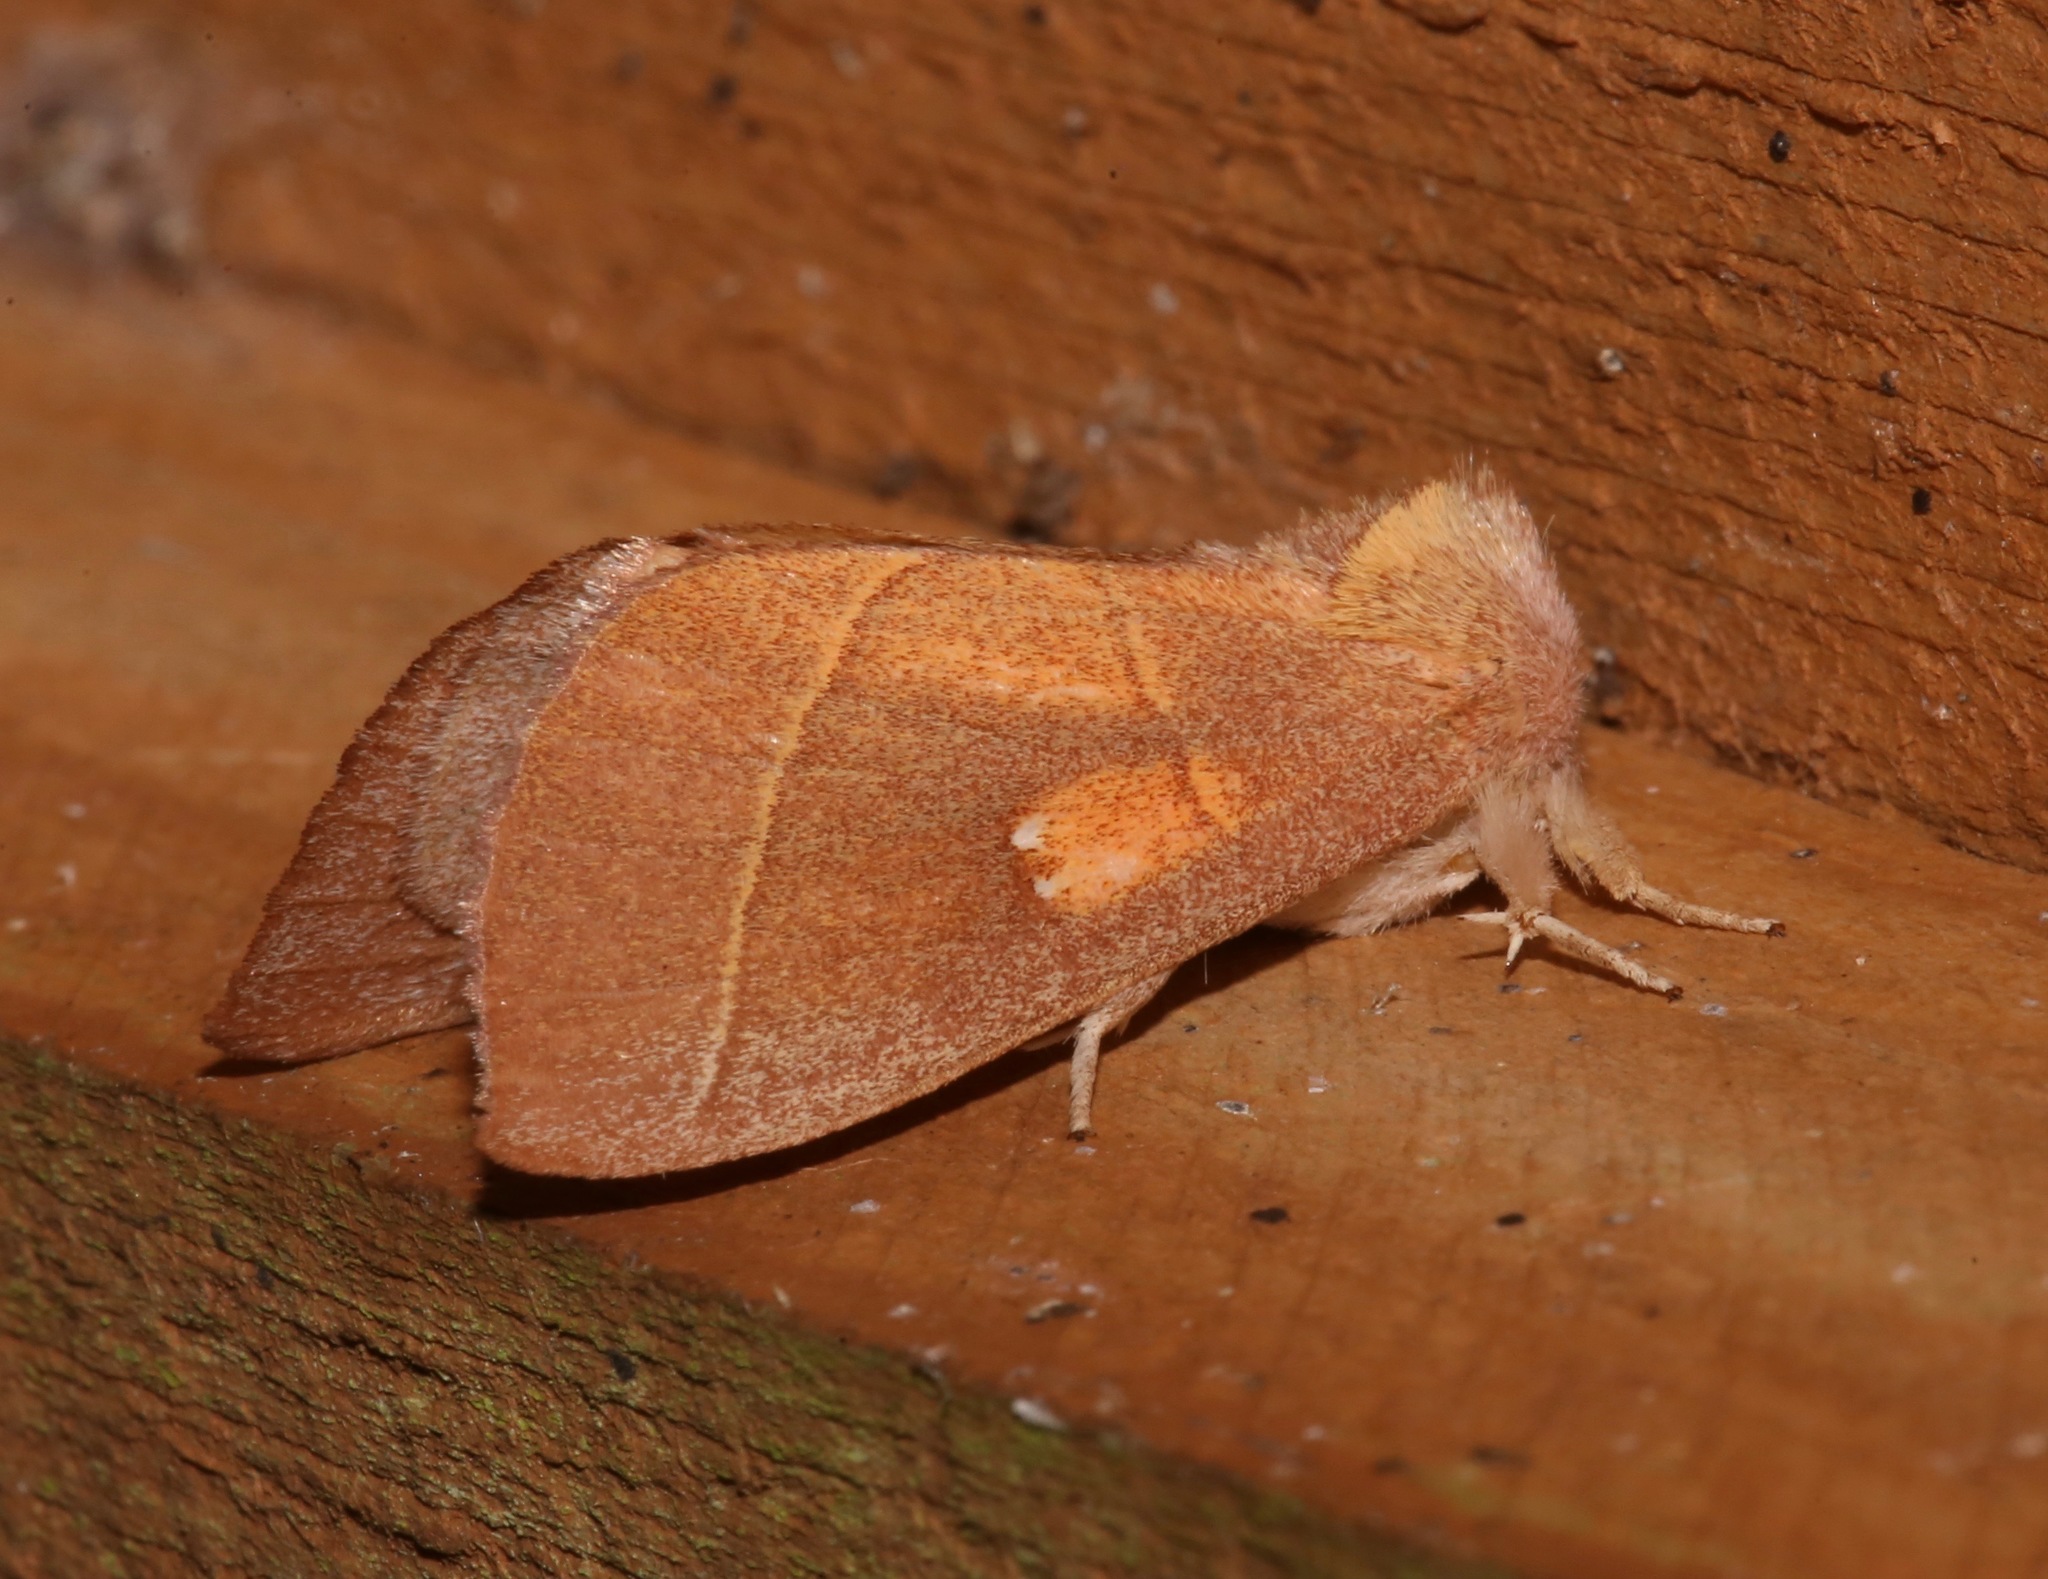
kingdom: Animalia
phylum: Arthropoda
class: Insecta
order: Lepidoptera
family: Notodontidae
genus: Nadata
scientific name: Nadata gibbosa
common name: White-dotted prominent
